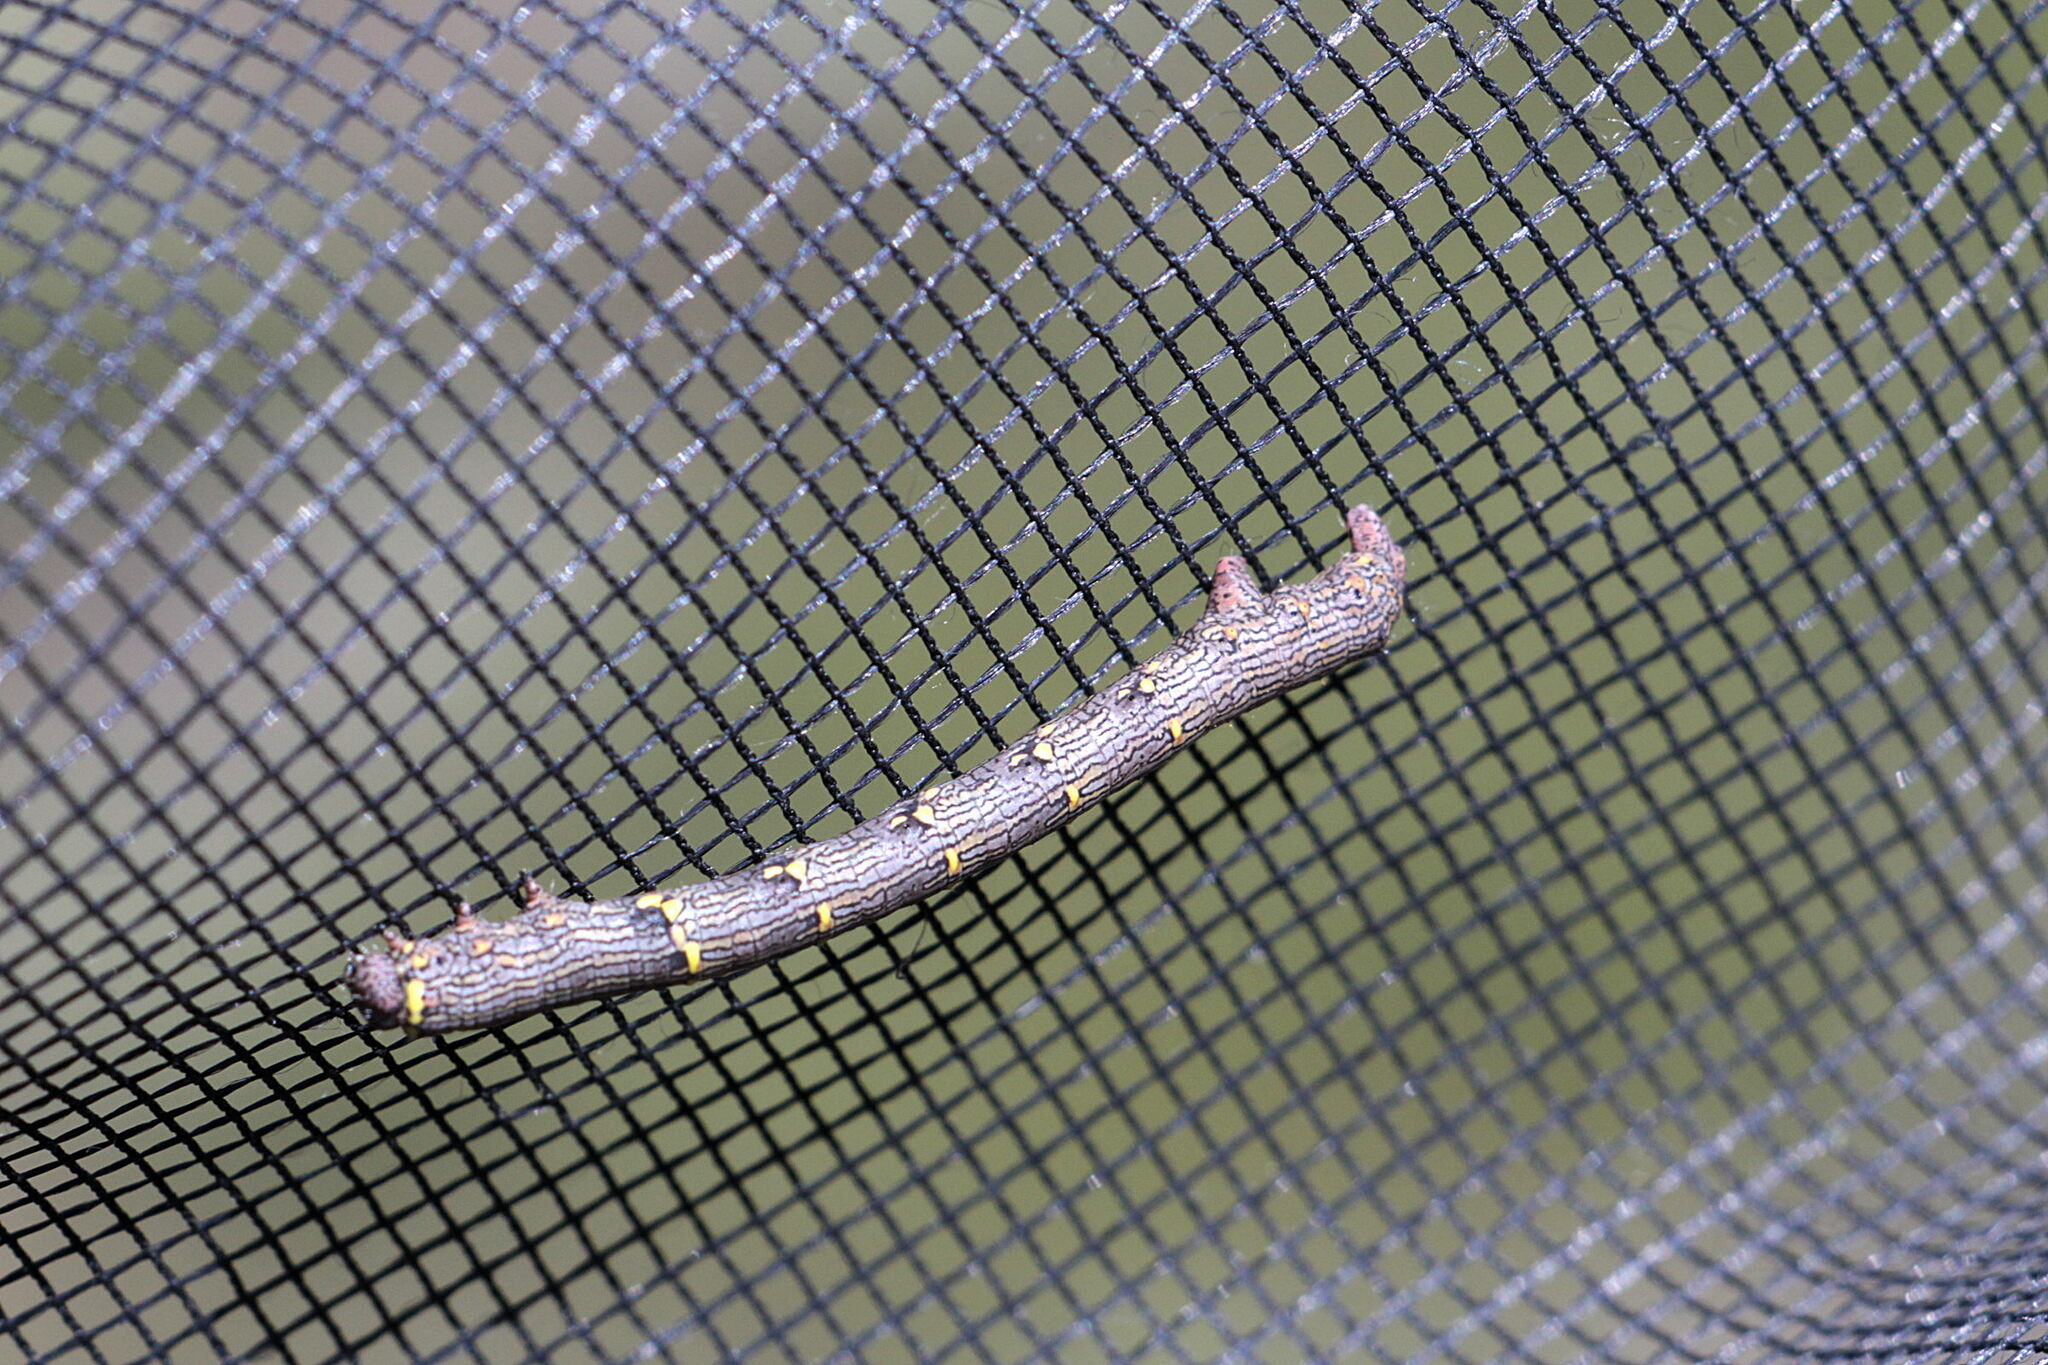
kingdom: Animalia
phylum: Arthropoda
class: Insecta
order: Lepidoptera
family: Geometridae
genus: Lycia
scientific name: Lycia hirtaria
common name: Brindled beauty
